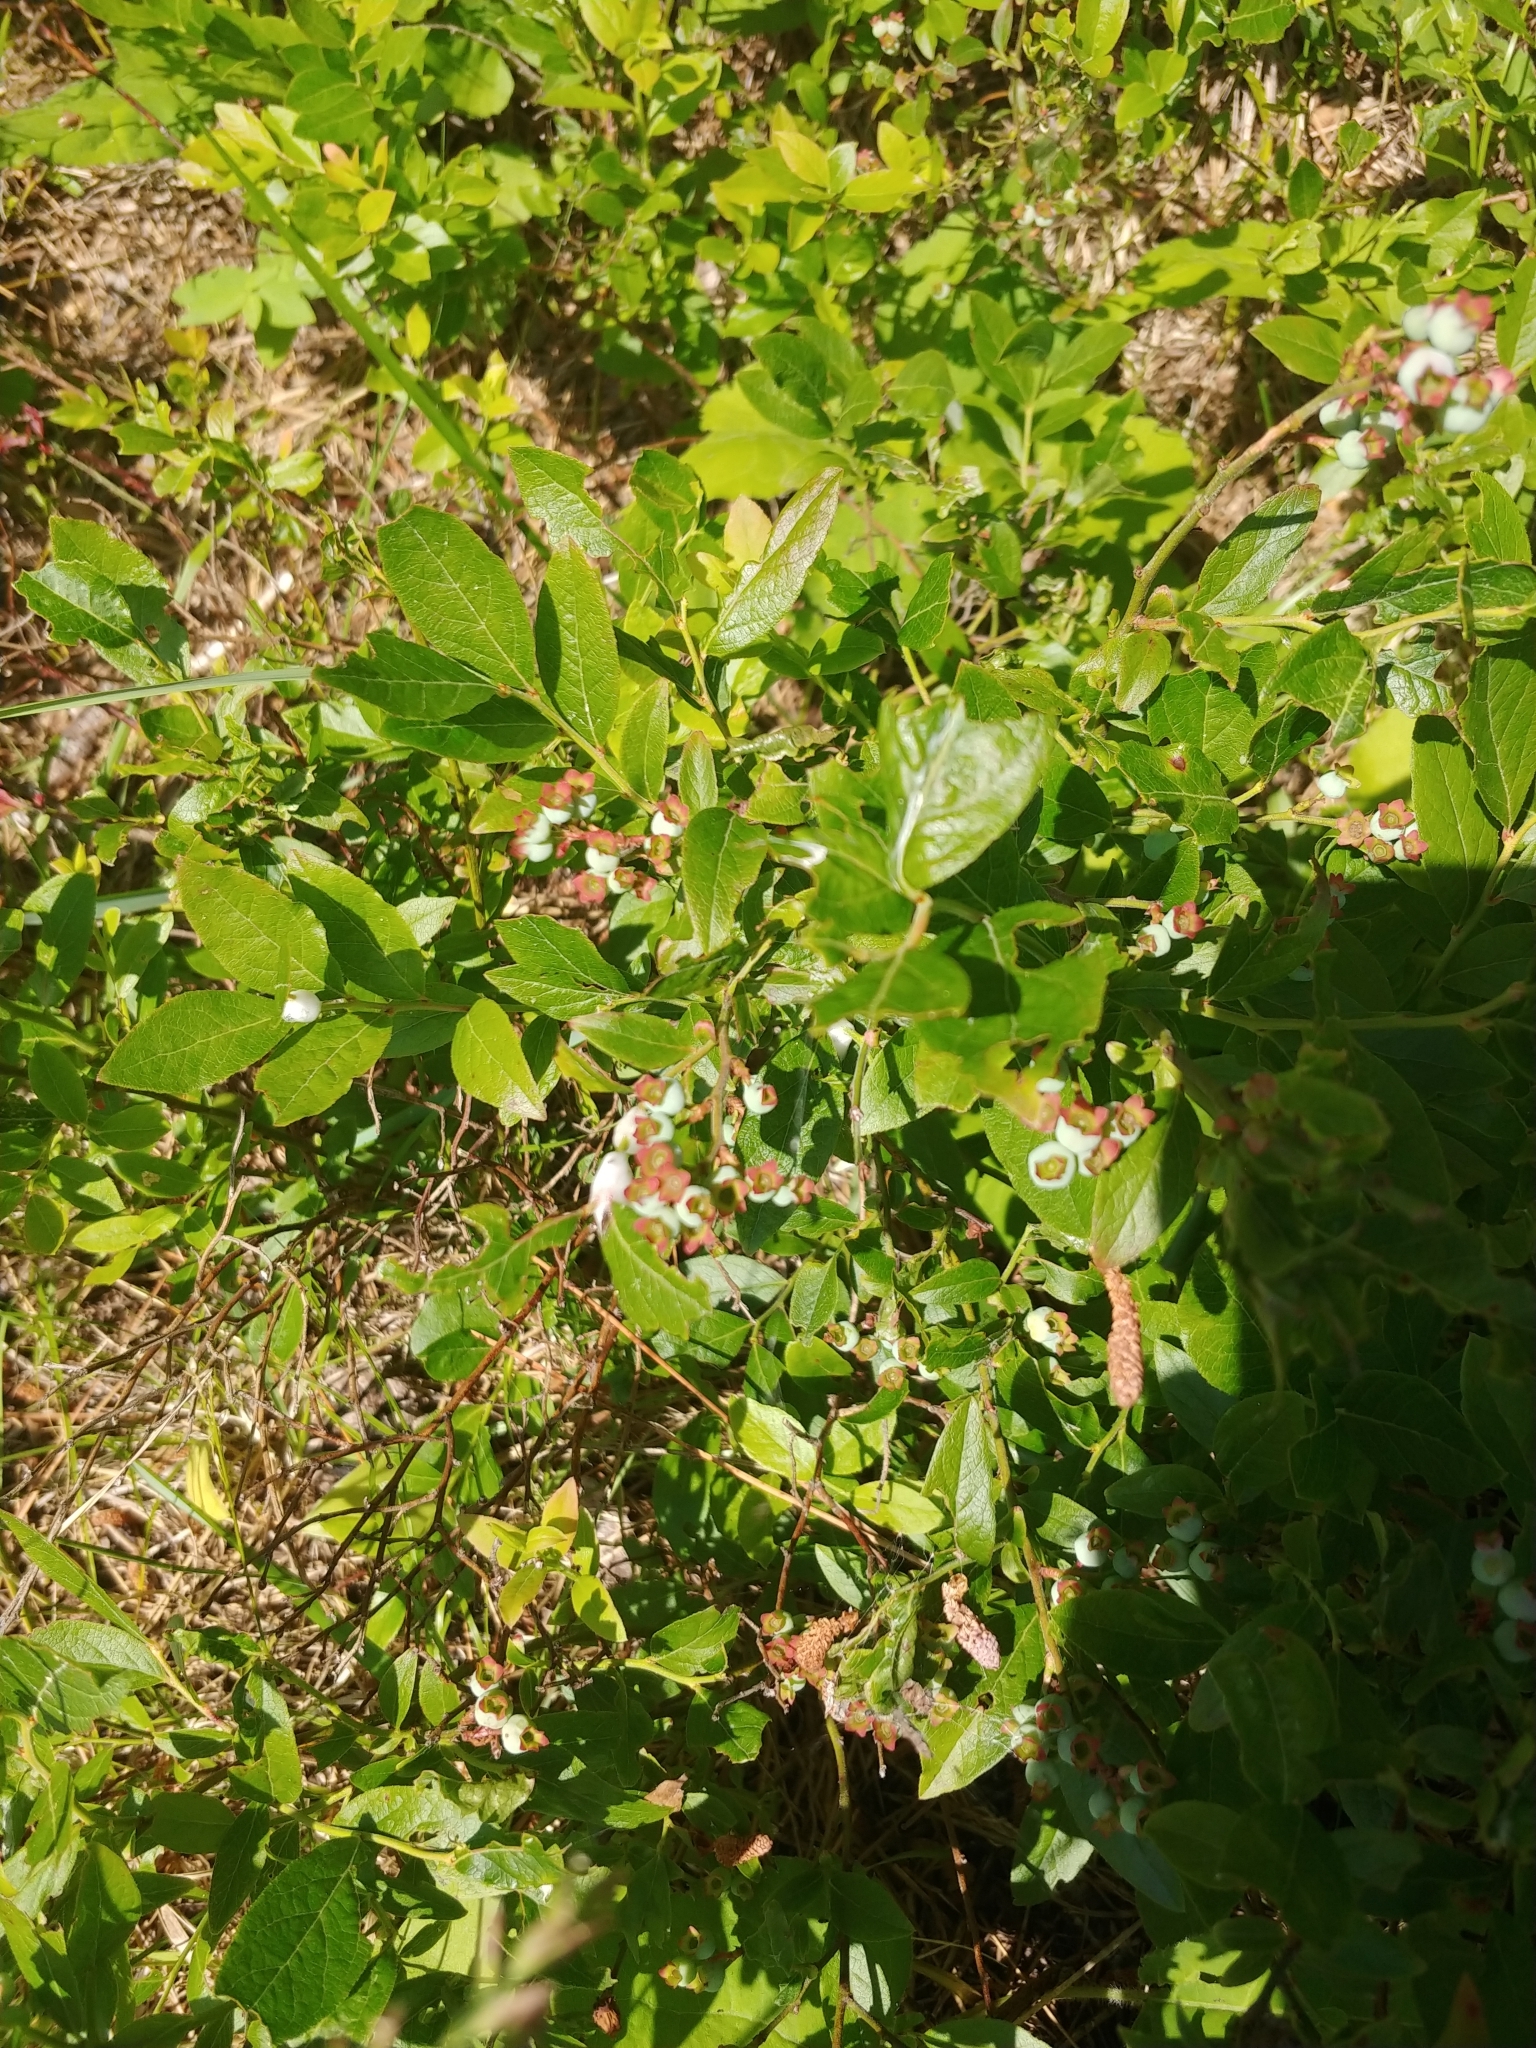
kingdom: Plantae
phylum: Tracheophyta
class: Magnoliopsida
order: Ericales
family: Ericaceae
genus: Vaccinium
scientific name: Vaccinium angustifolium
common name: Early lowbush blueberry
